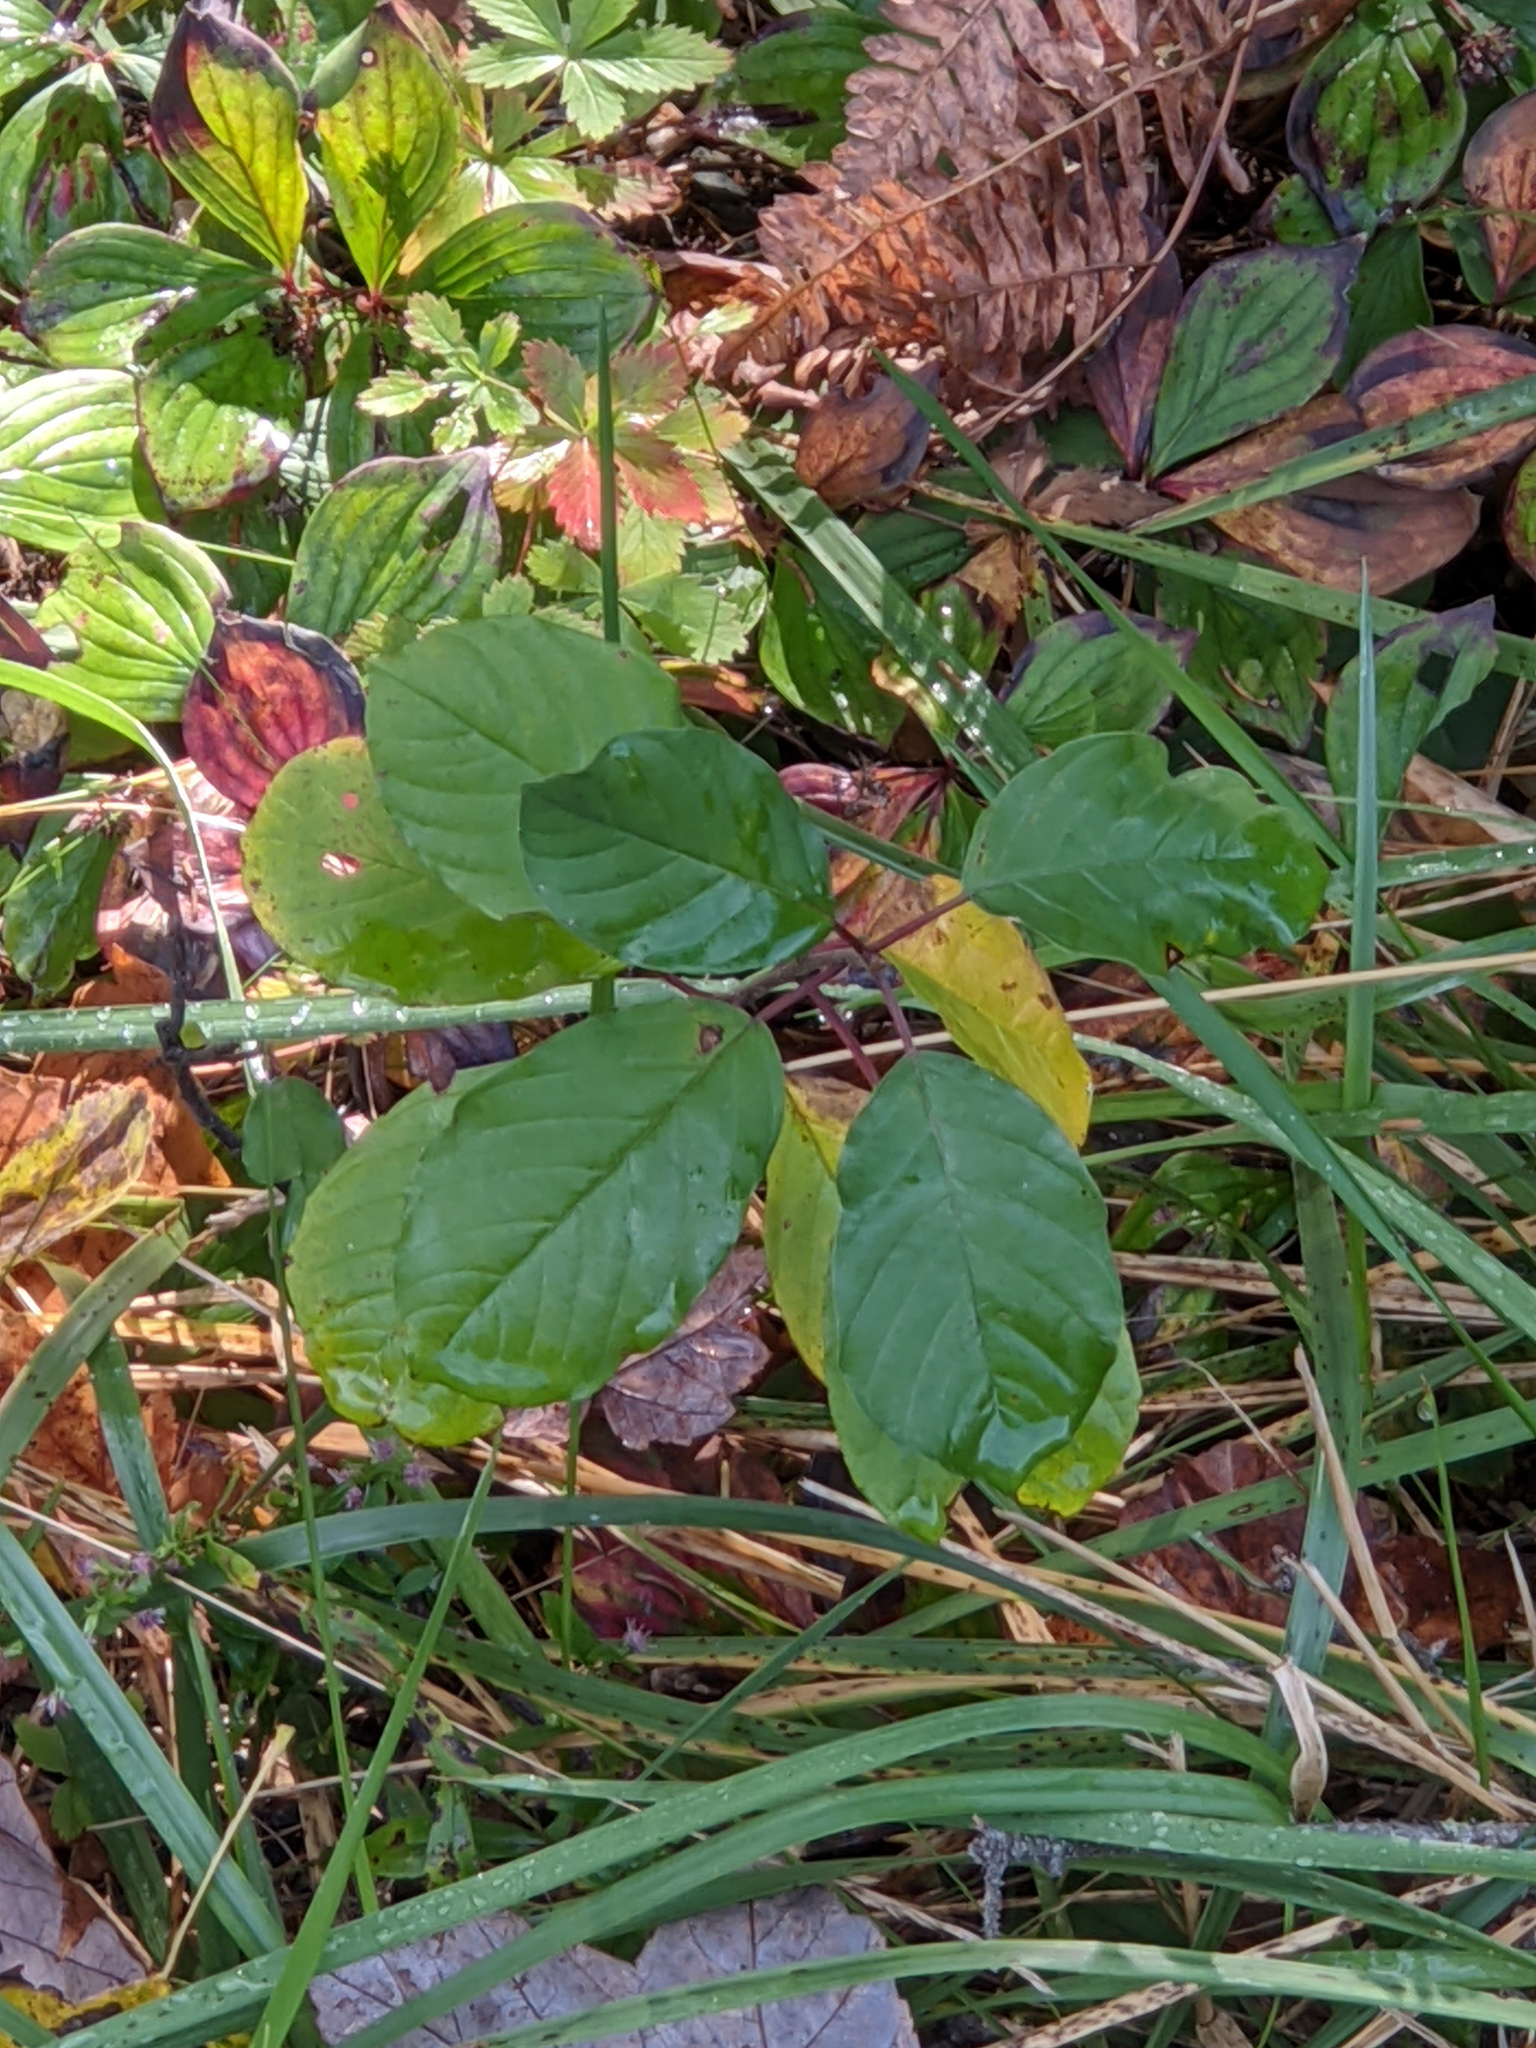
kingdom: Plantae
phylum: Tracheophyta
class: Magnoliopsida
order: Rosales
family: Rhamnaceae
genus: Frangula
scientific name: Frangula alnus
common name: Alder buckthorn
